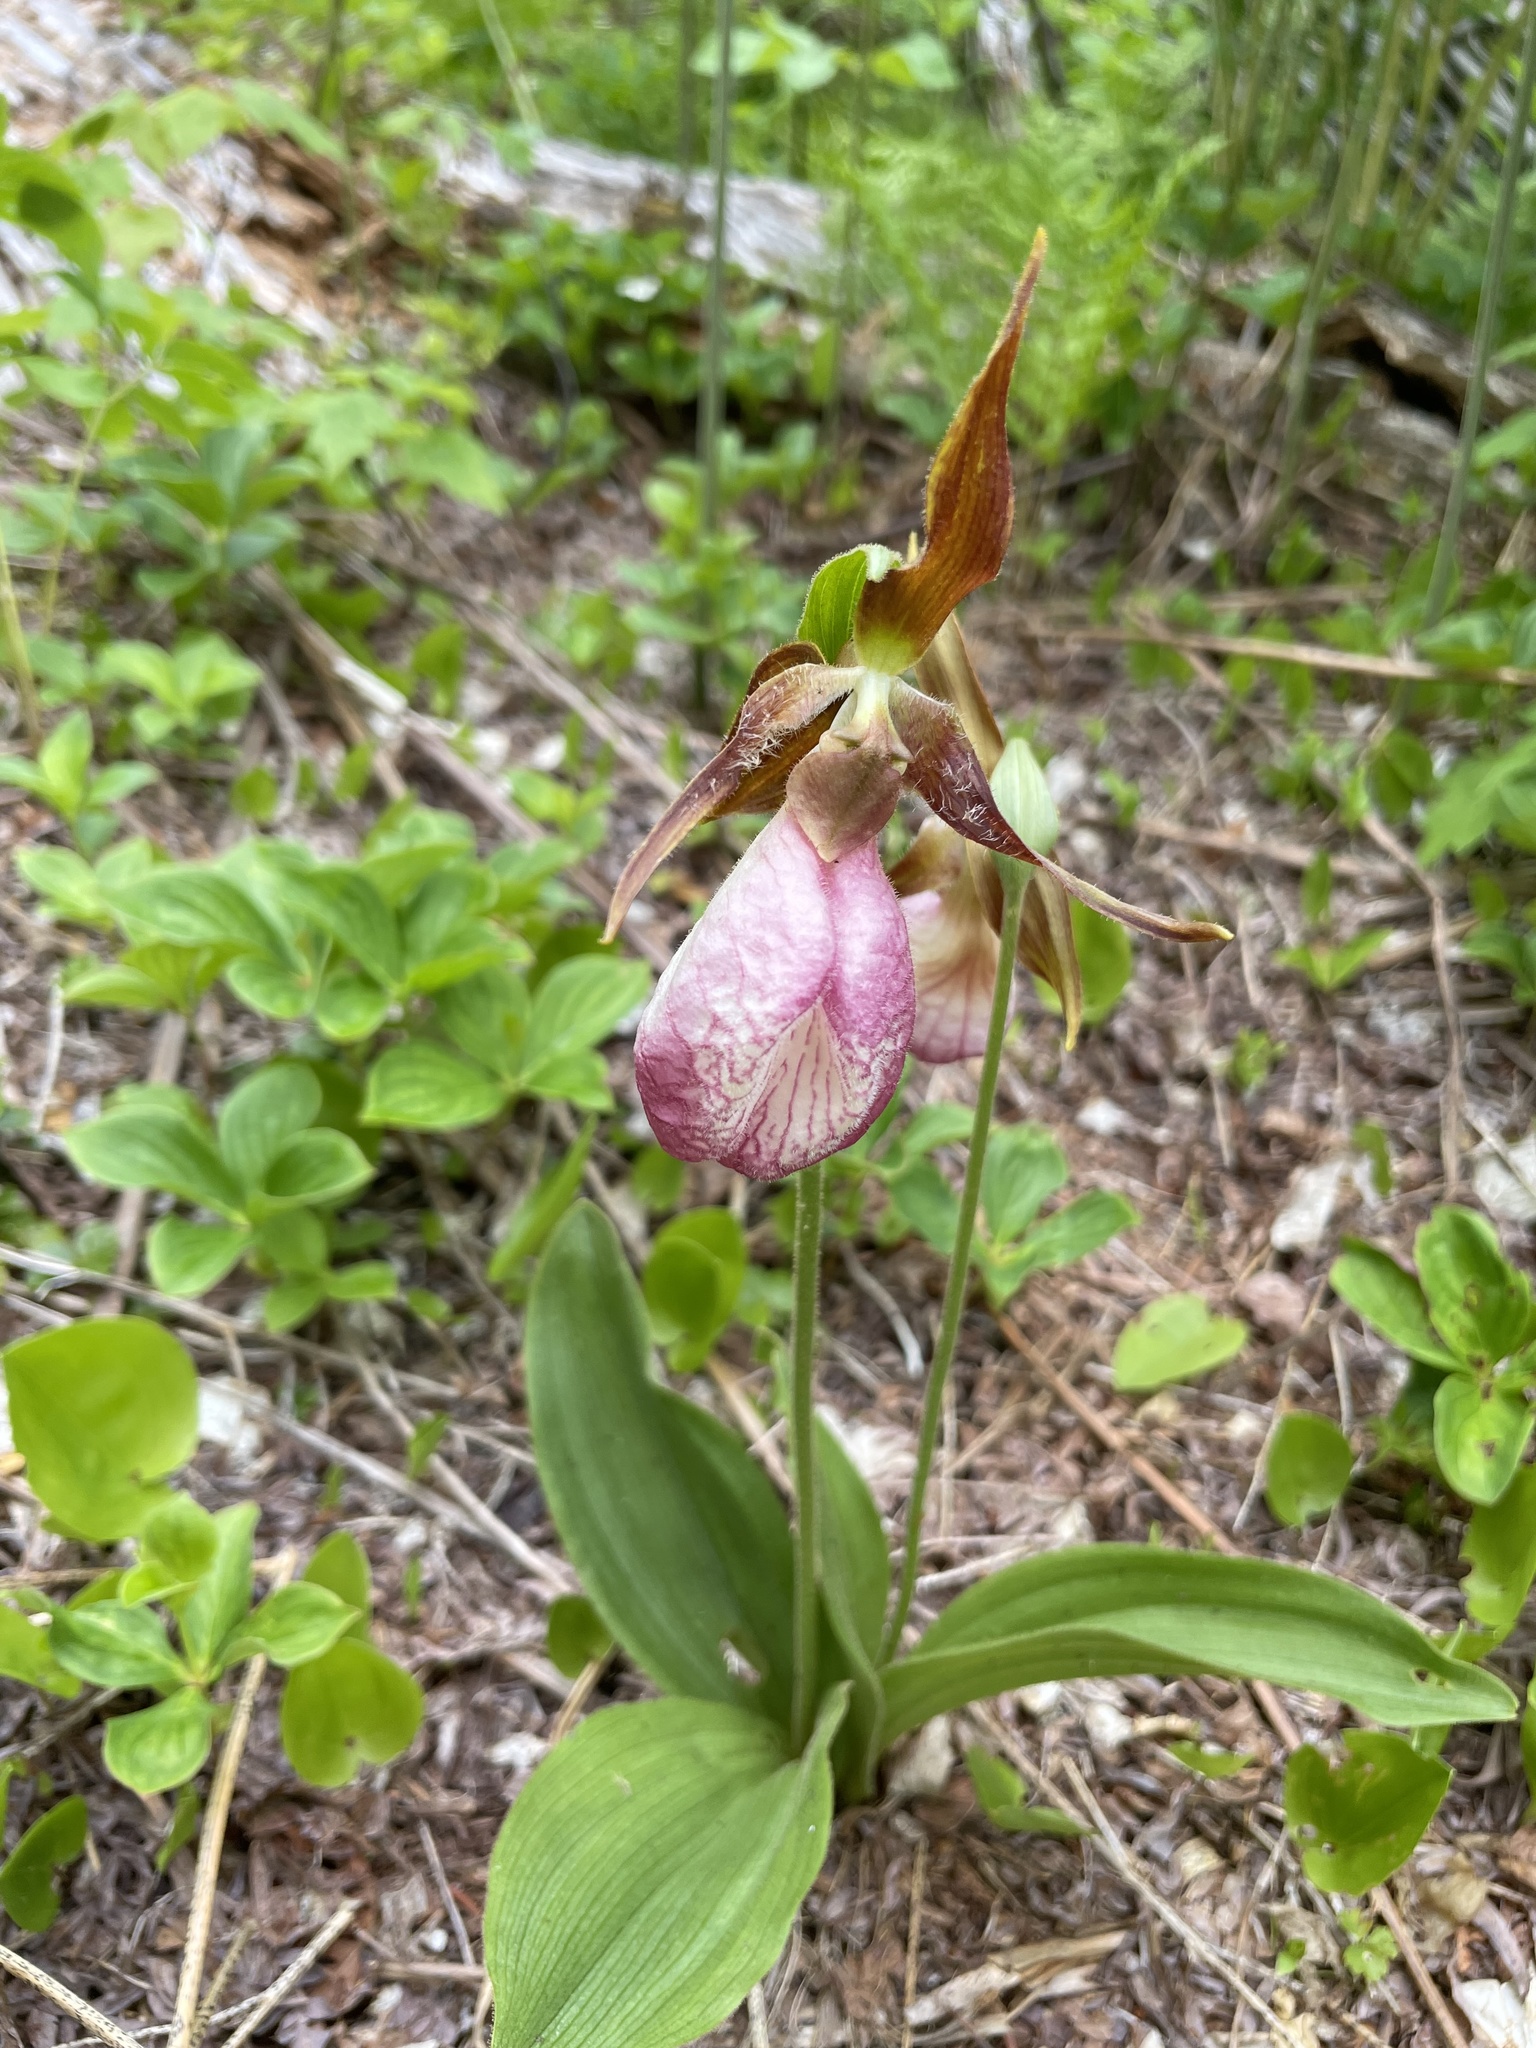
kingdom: Plantae
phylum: Tracheophyta
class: Liliopsida
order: Asparagales
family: Orchidaceae
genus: Cypripedium
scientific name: Cypripedium acaule
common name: Pink lady's-slipper
